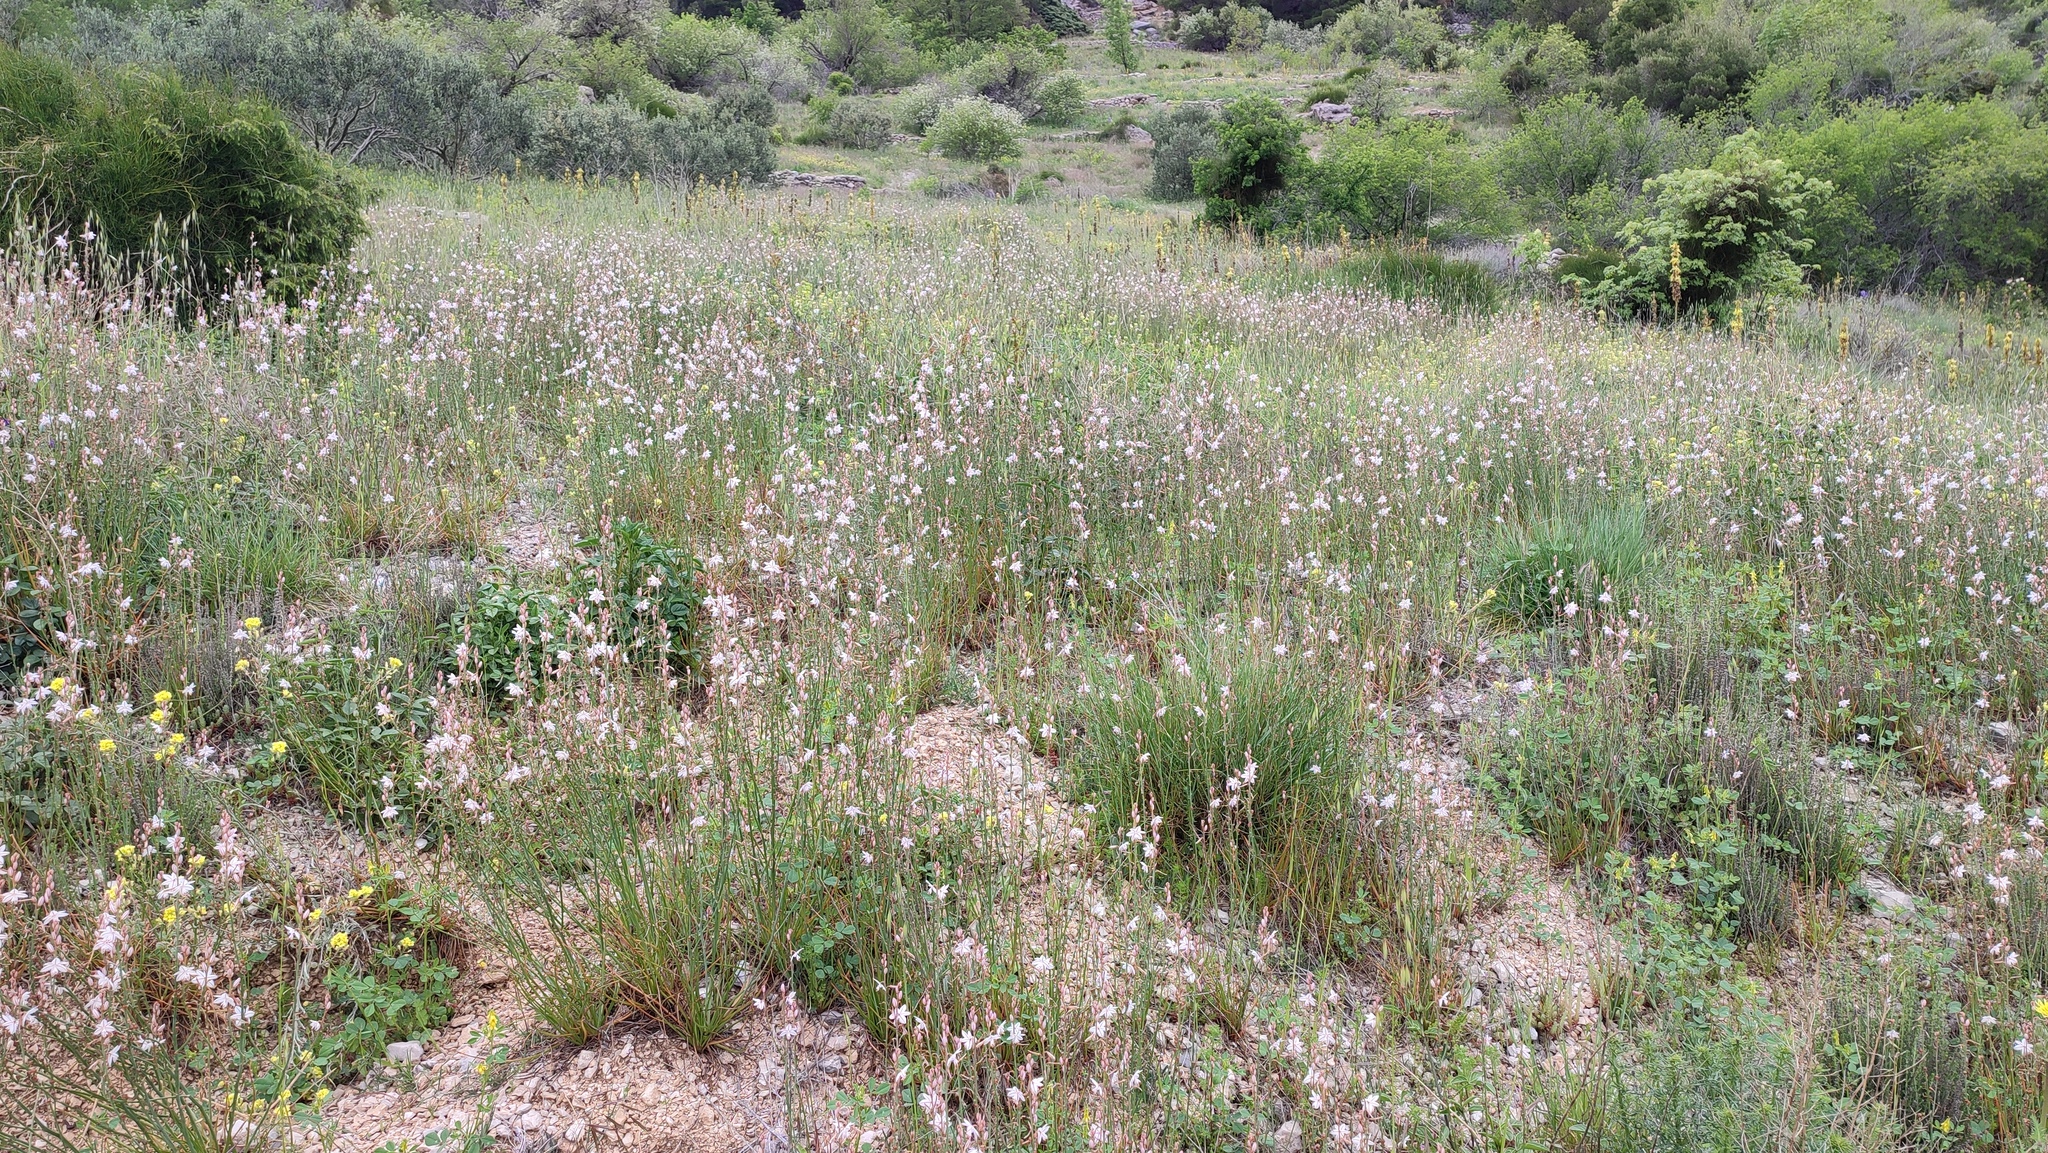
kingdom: Plantae
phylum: Tracheophyta
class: Liliopsida
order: Asparagales
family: Asphodelaceae
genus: Asphodelus
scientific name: Asphodelus fistulosus
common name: Onionweed
